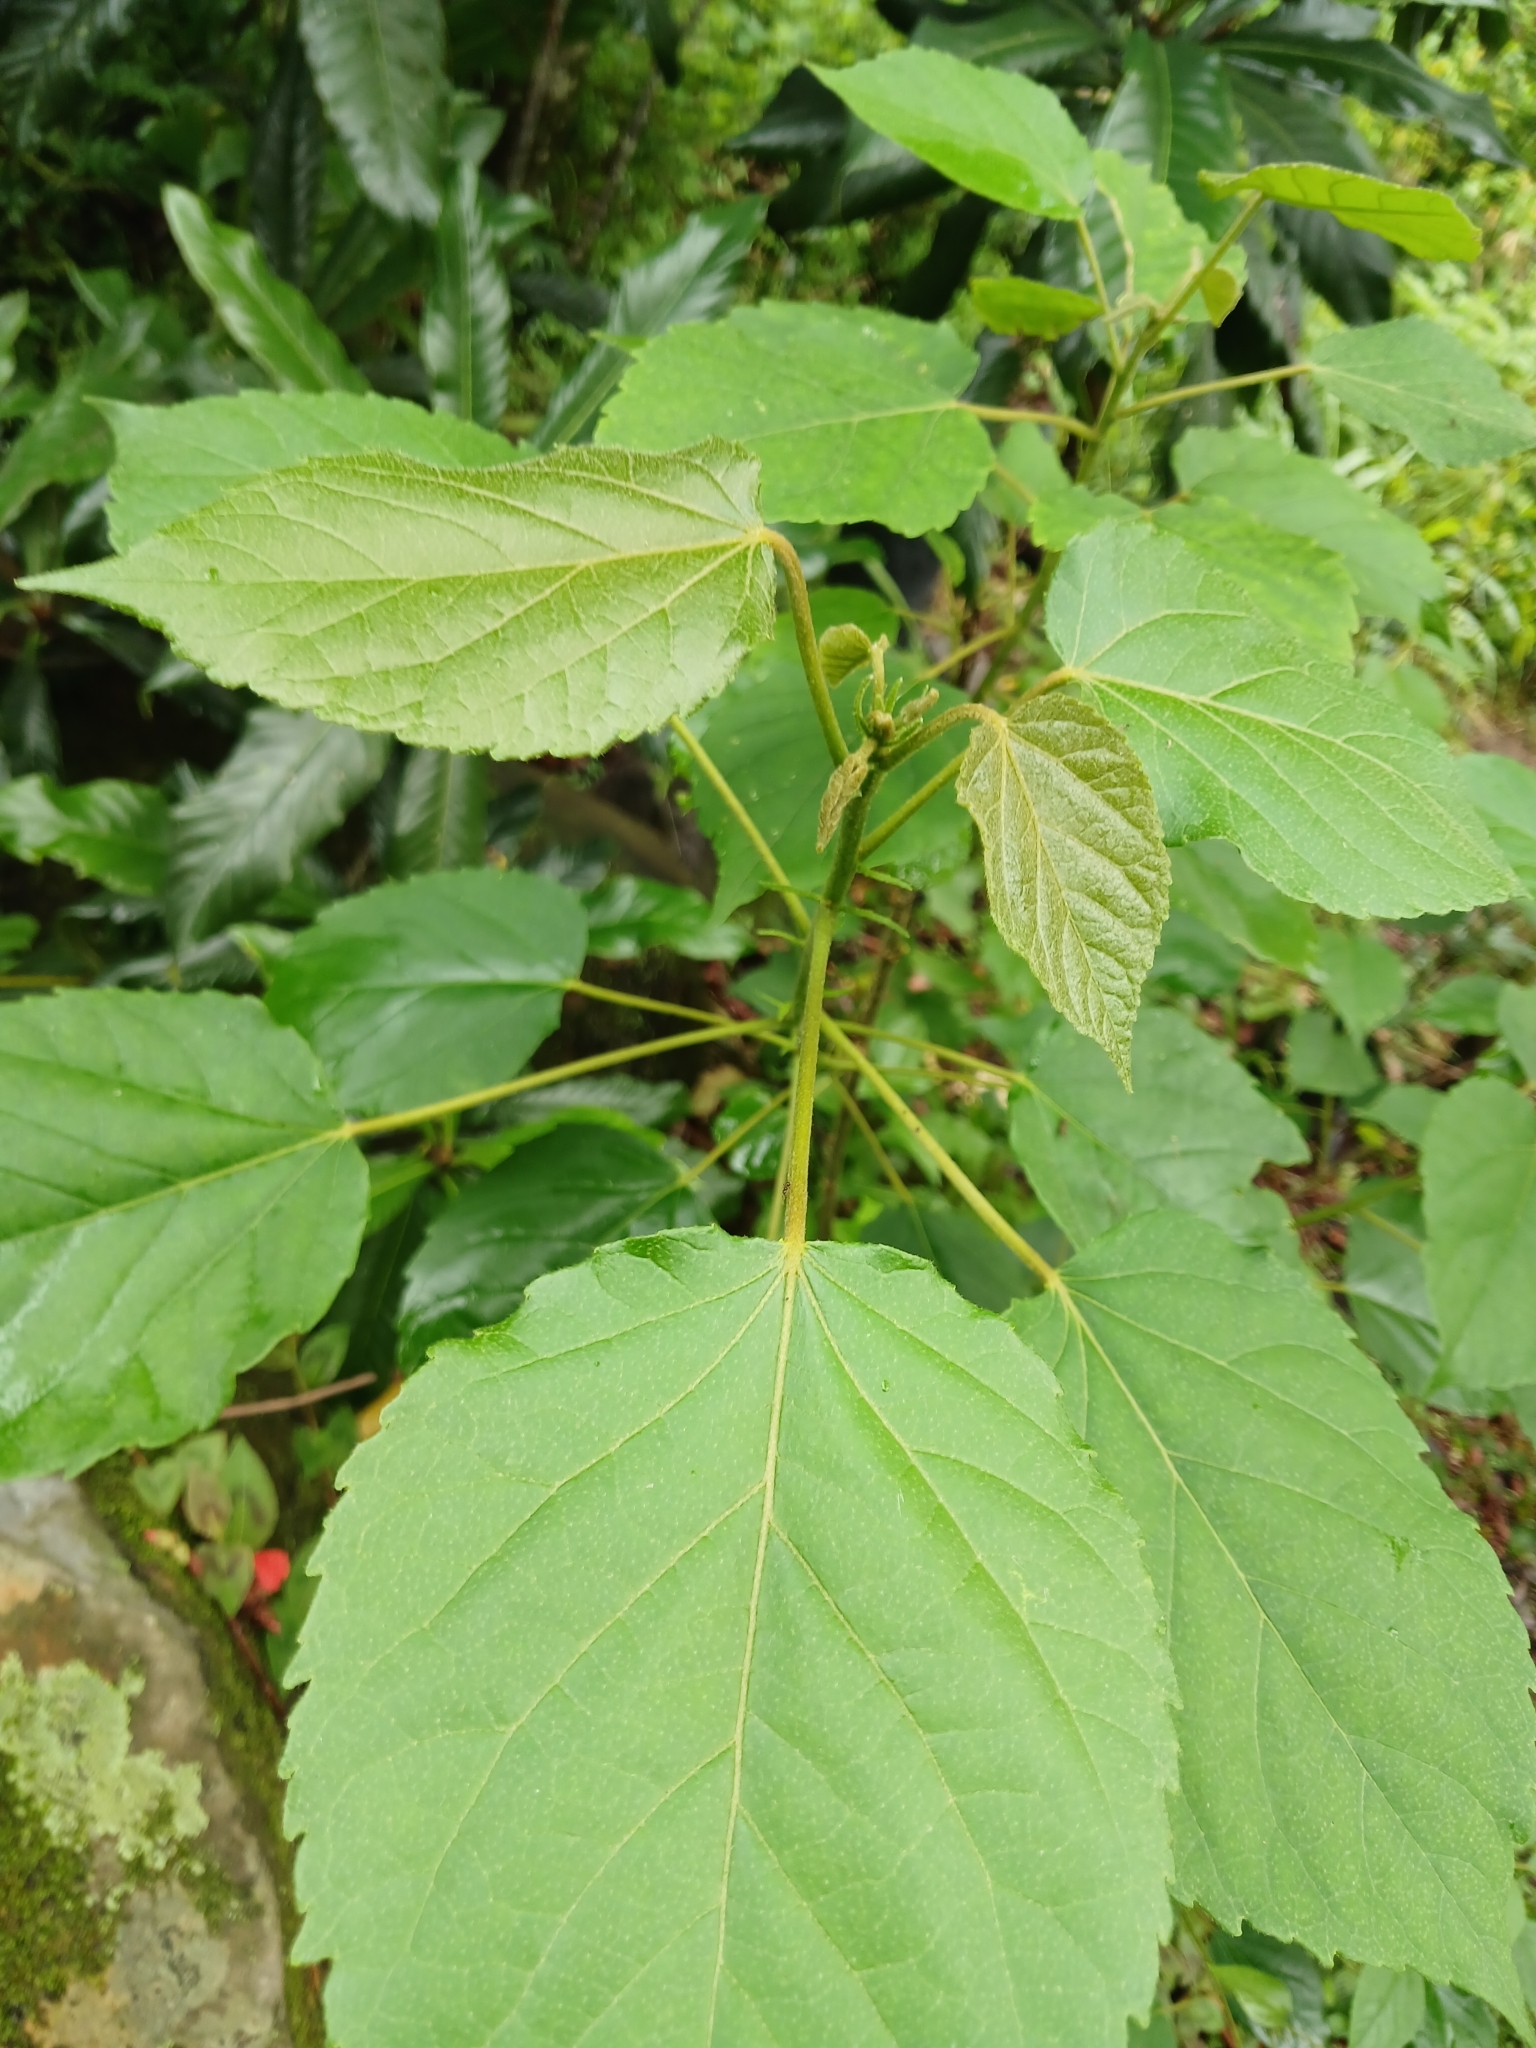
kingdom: Plantae
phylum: Tracheophyta
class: Magnoliopsida
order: Malpighiales
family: Euphorbiaceae
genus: Croton
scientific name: Croton sylvaticus
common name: Forest croton
